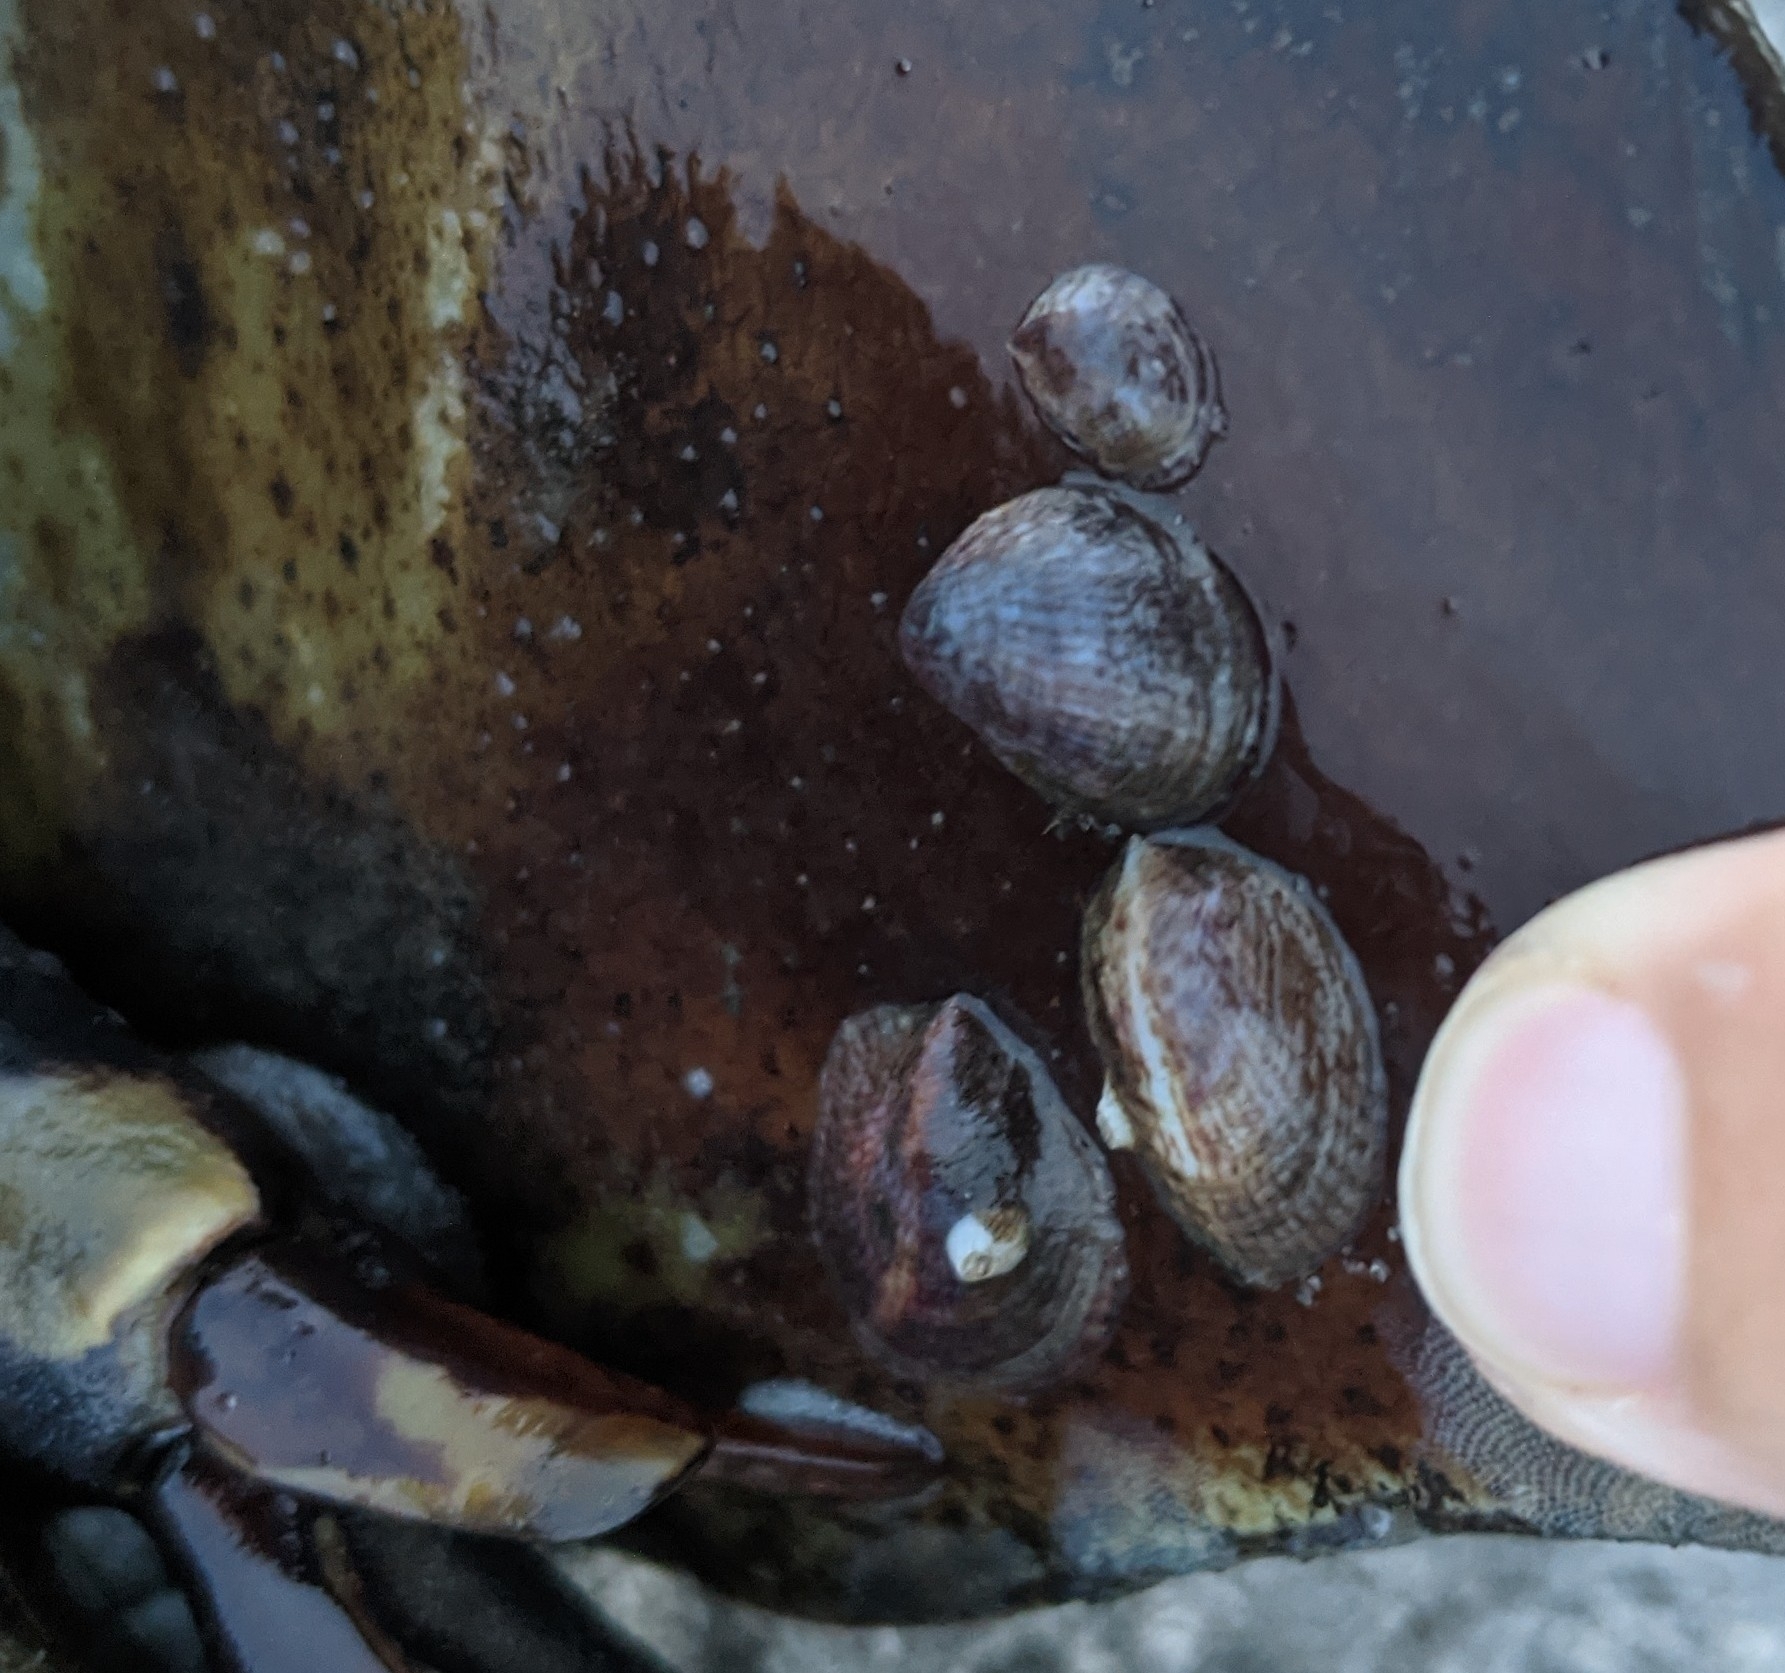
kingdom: Animalia
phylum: Mollusca
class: Gastropoda
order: Littorinimorpha
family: Calyptraeidae
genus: Crepidula
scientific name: Crepidula fornicata
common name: Slipper limpet
